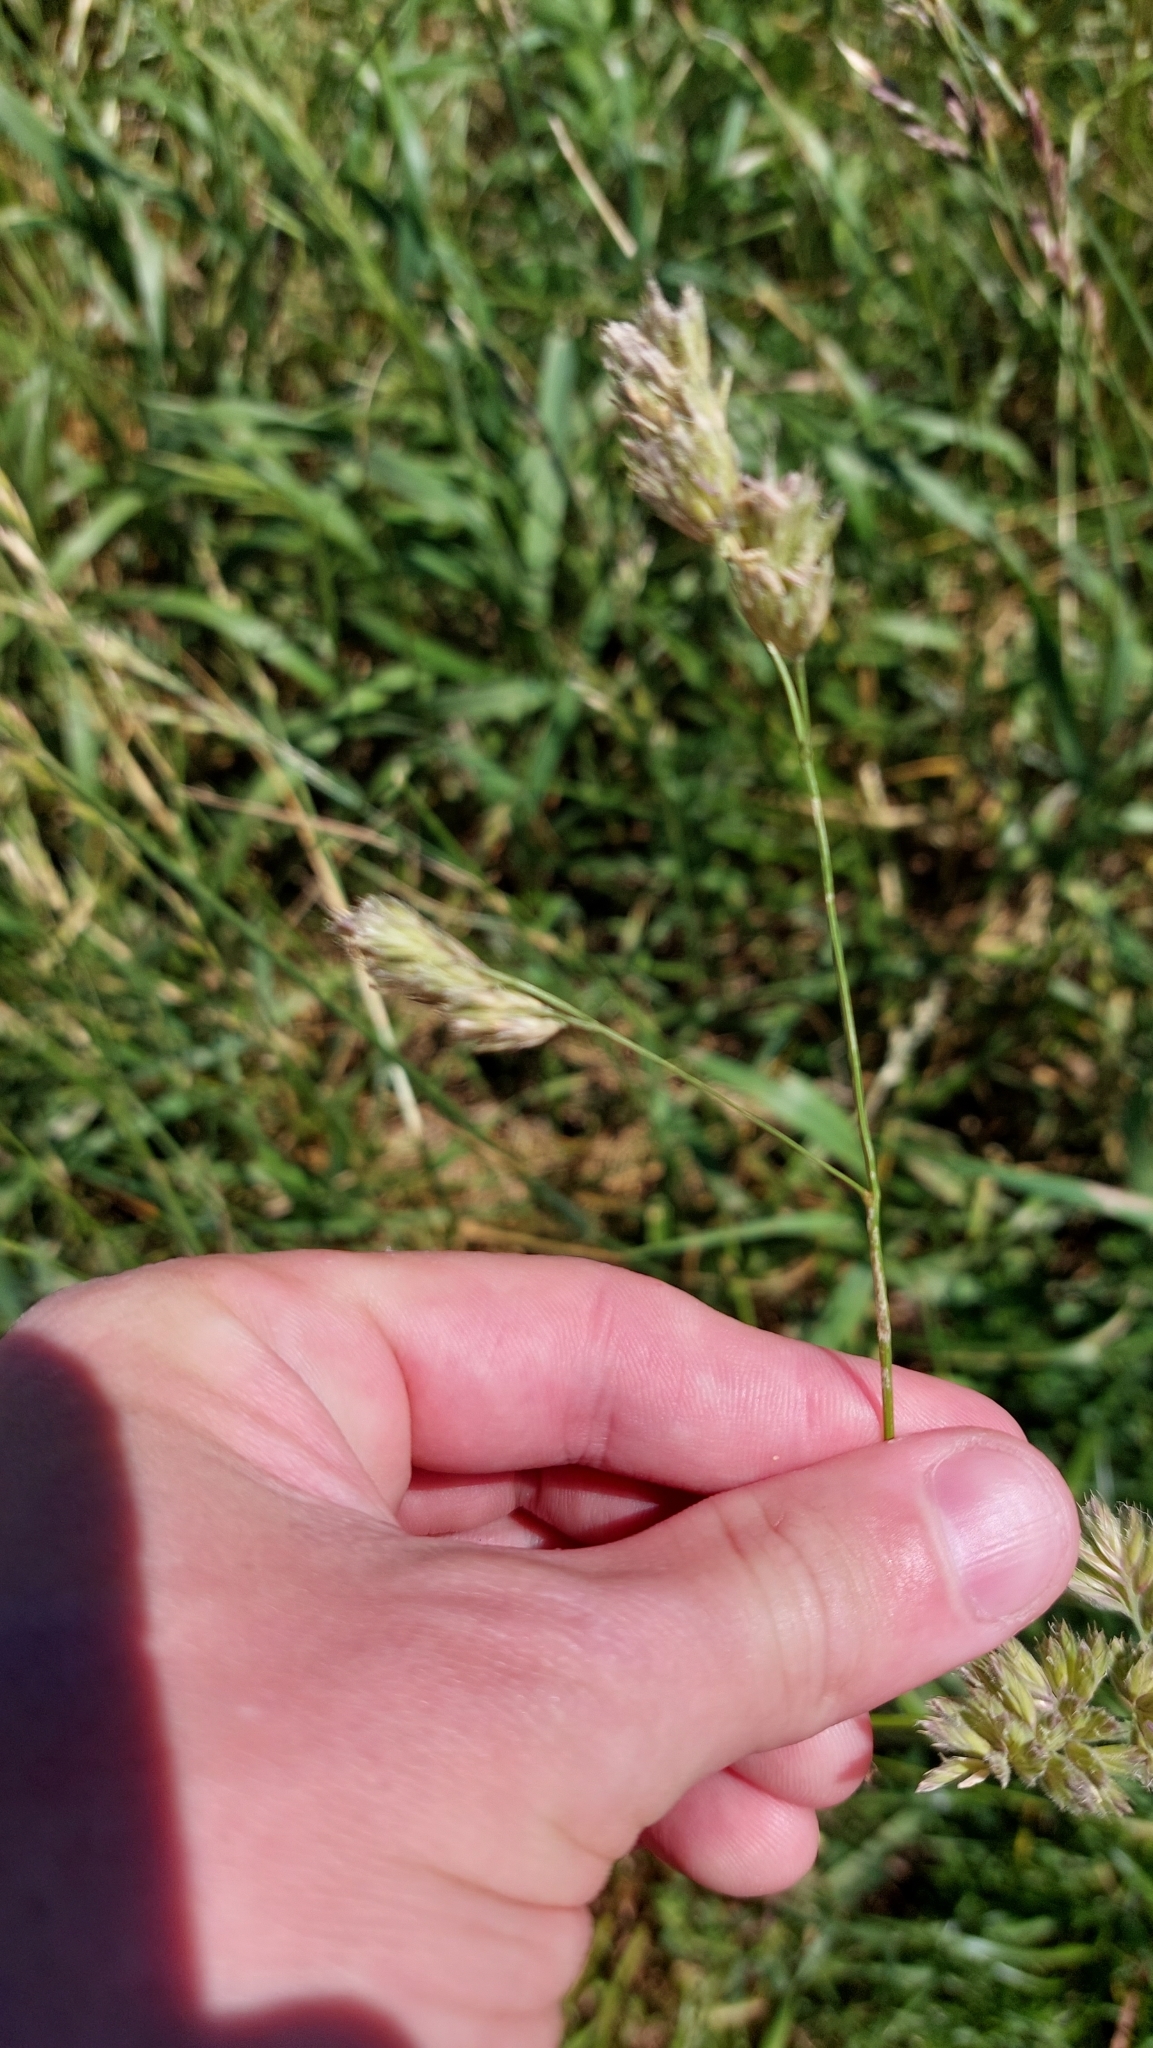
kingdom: Plantae
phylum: Tracheophyta
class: Liliopsida
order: Poales
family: Poaceae
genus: Dactylis
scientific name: Dactylis glomerata
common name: Orchardgrass
